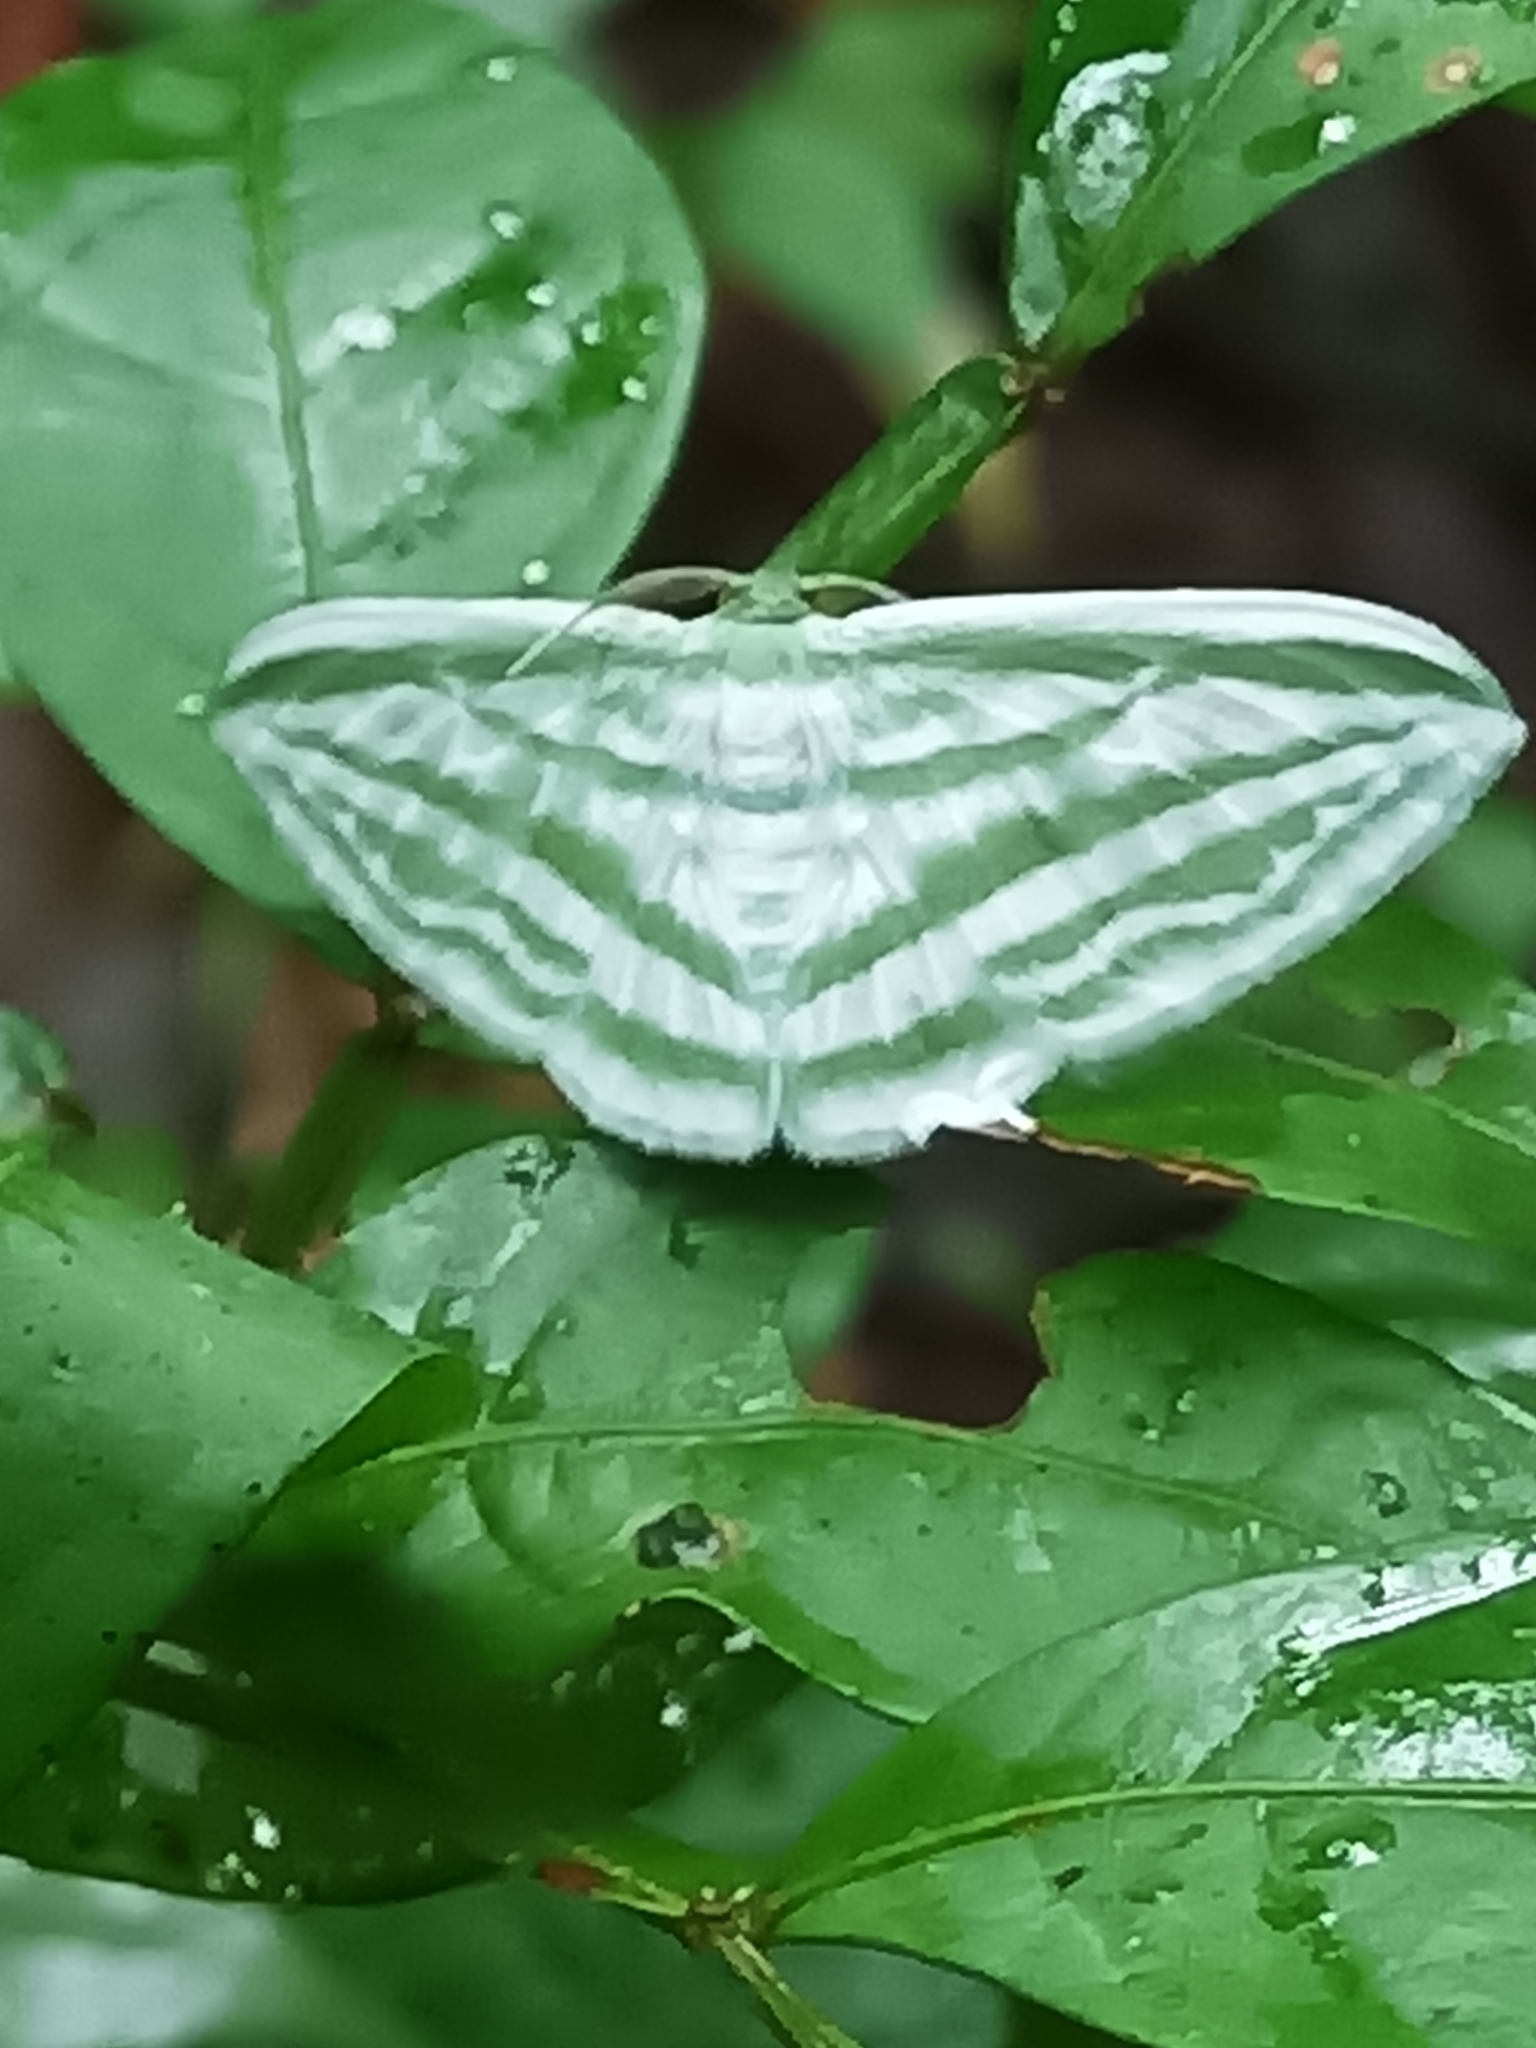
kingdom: Animalia
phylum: Arthropoda
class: Insecta
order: Lepidoptera
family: Geometridae
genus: Dyspteris
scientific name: Dyspteris tenuivitta
